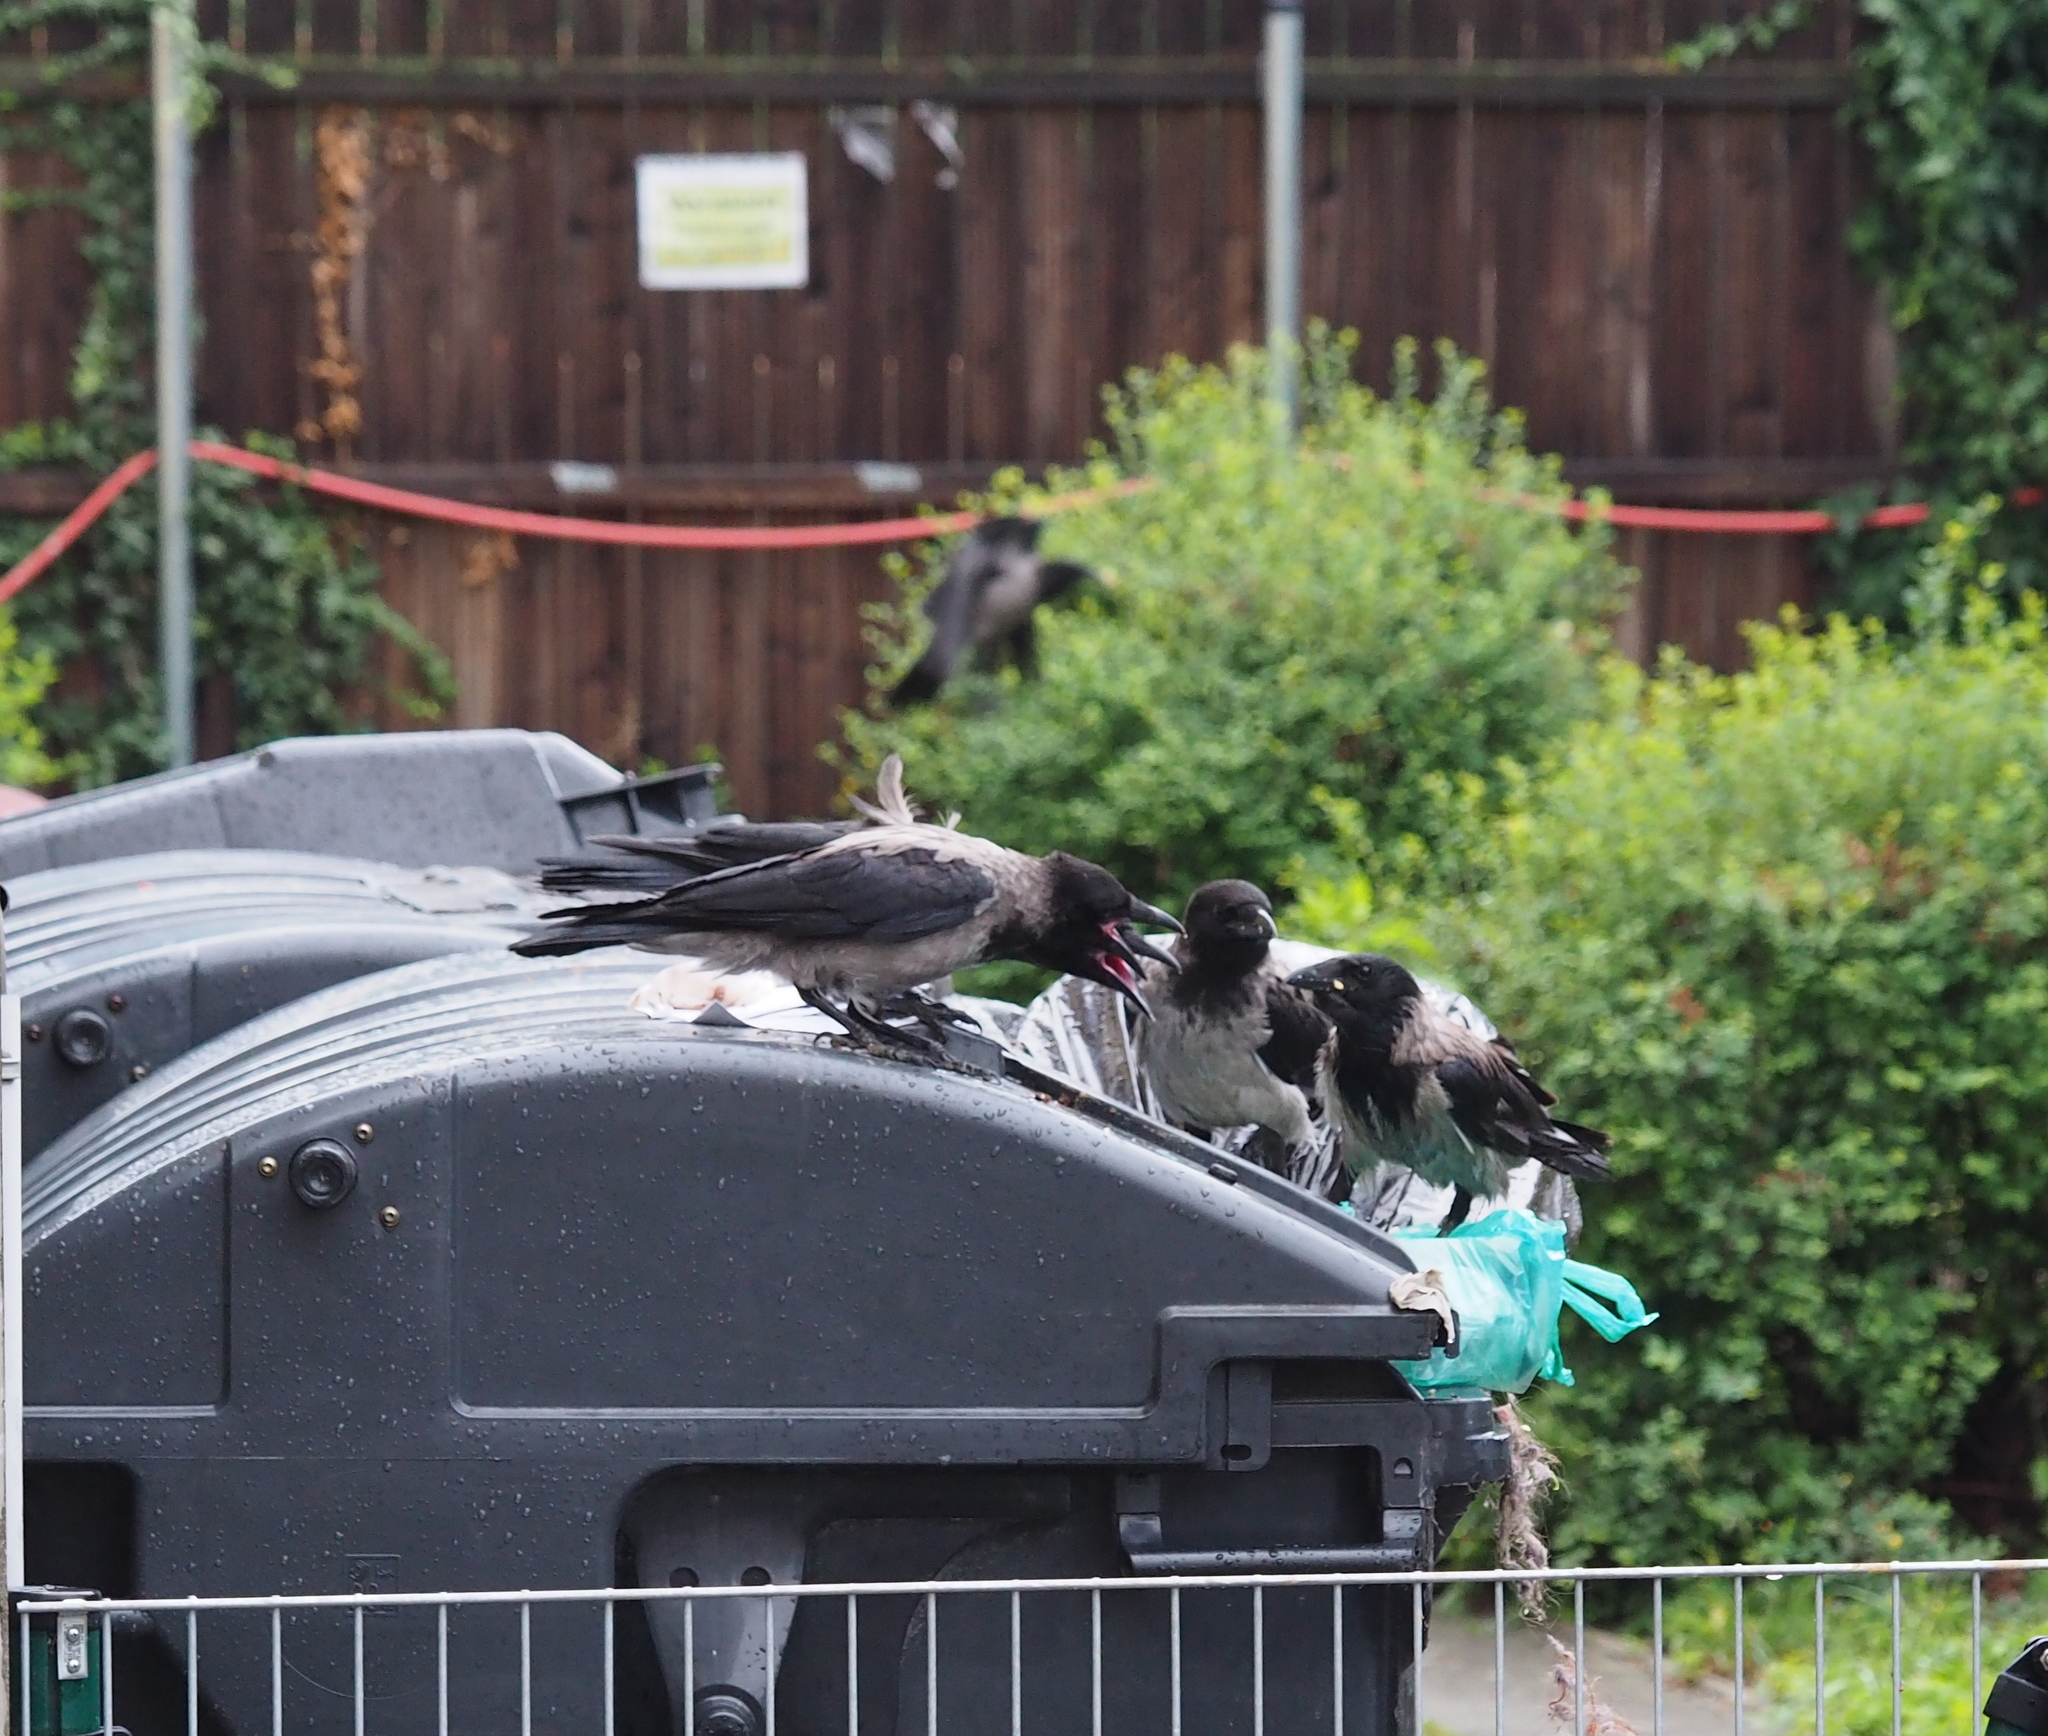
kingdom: Animalia
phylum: Chordata
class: Aves
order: Passeriformes
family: Corvidae
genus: Corvus
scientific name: Corvus cornix
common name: Hooded crow
